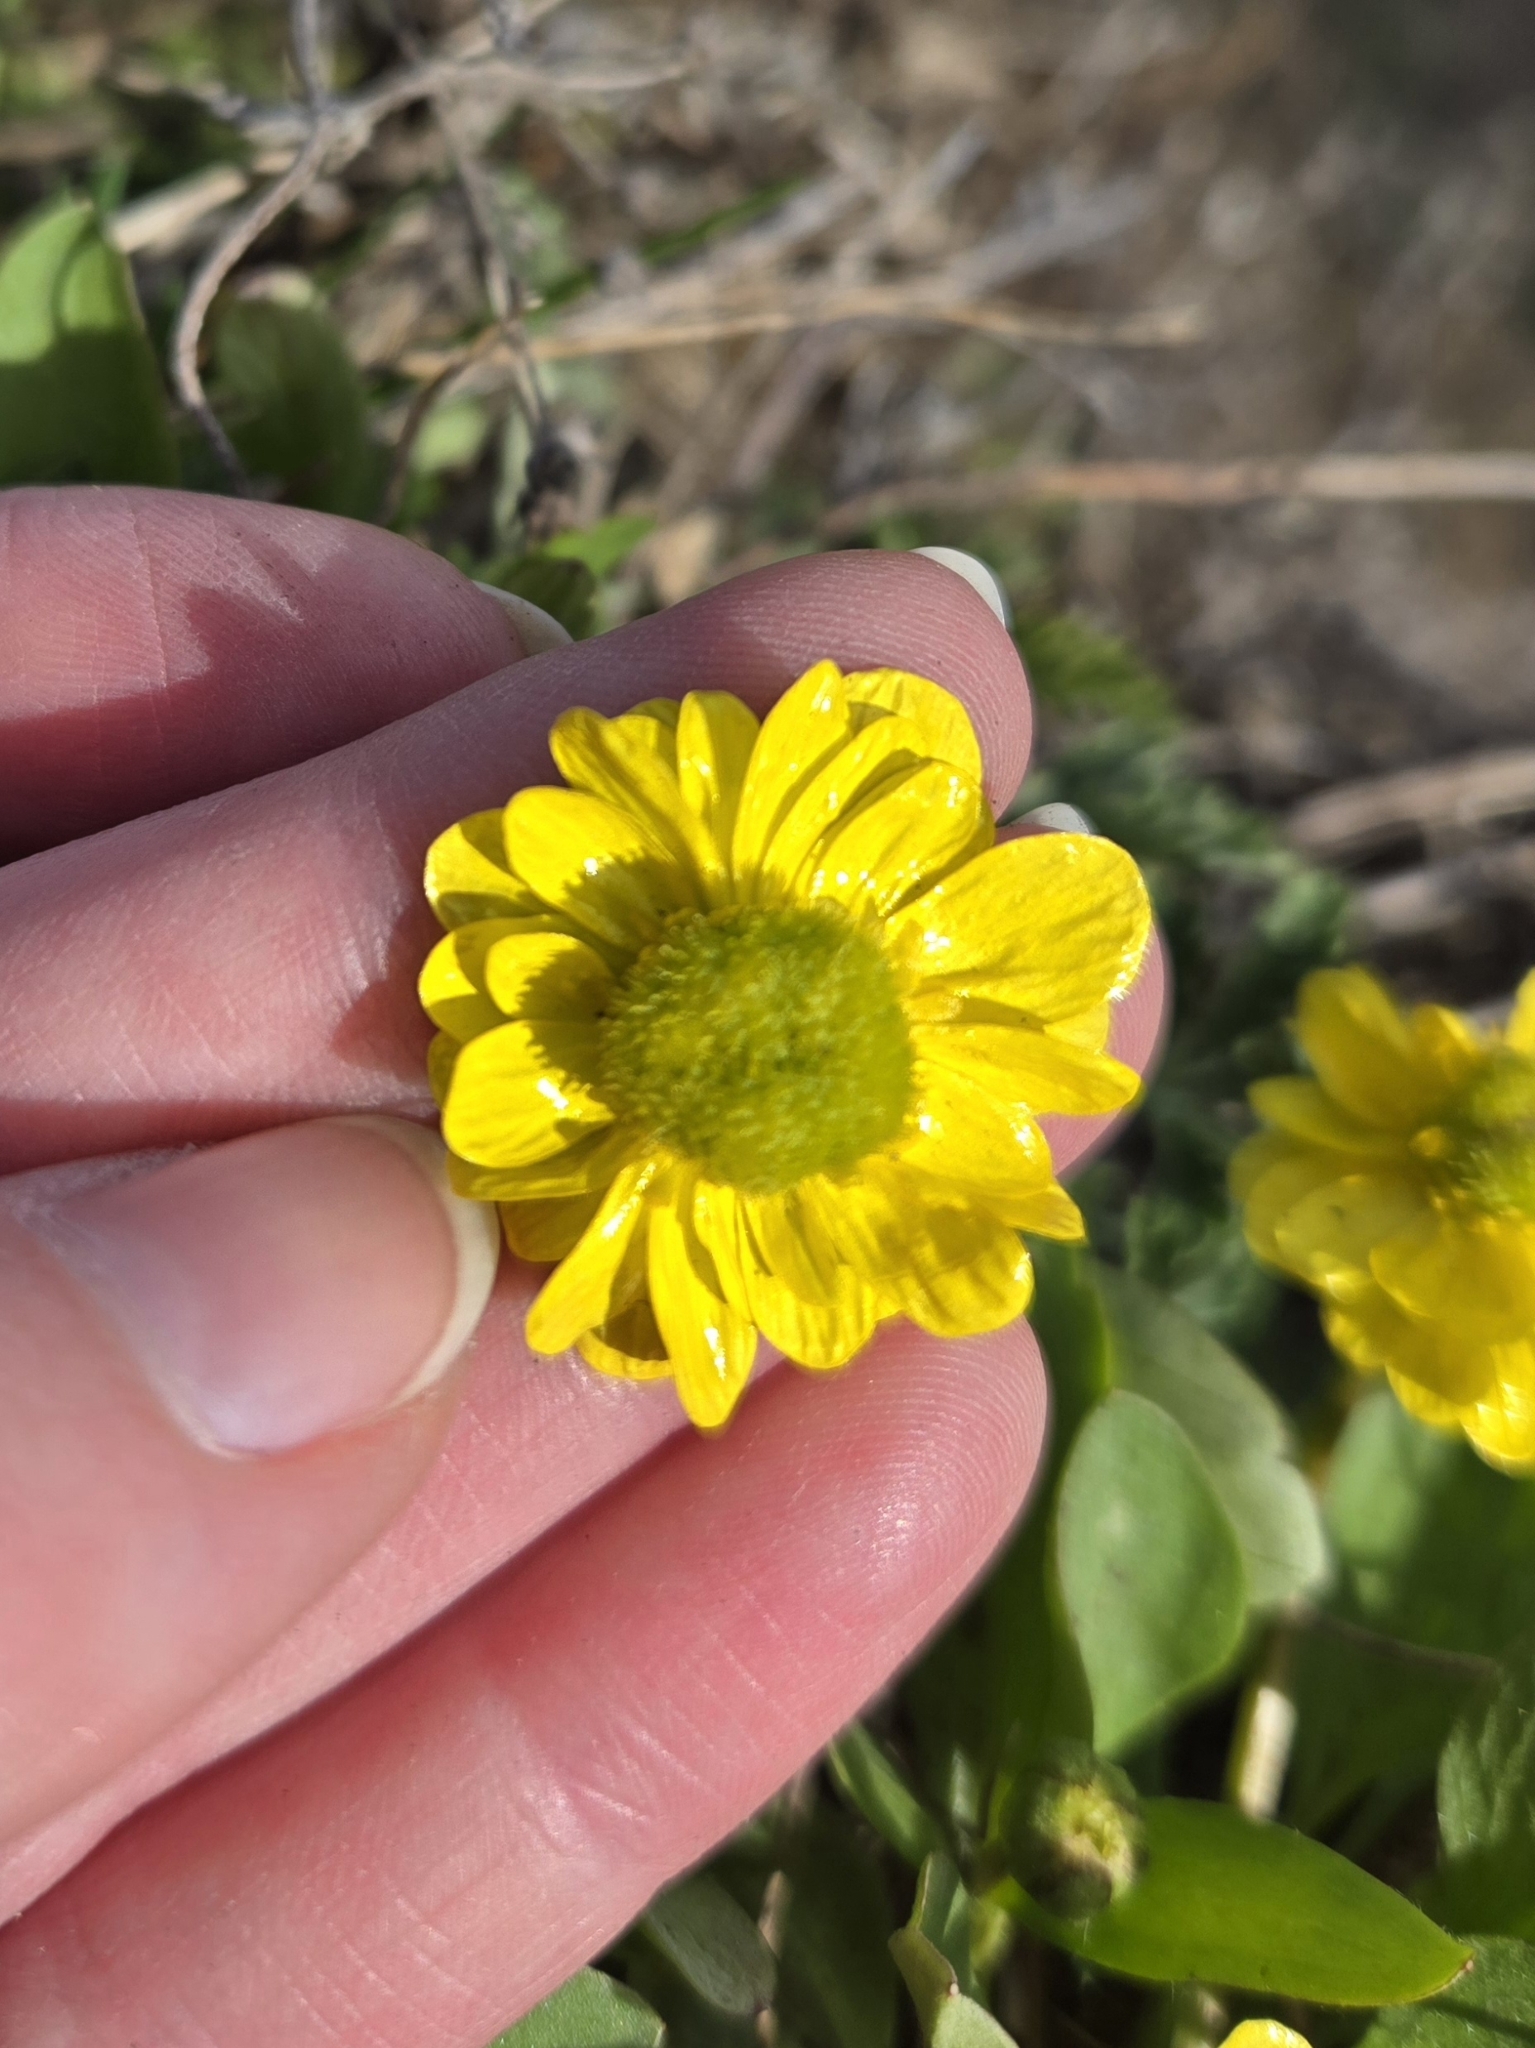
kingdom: Plantae
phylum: Tracheophyta
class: Magnoliopsida
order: Ranunculales
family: Ranunculaceae
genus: Ranunculus
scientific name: Ranunculus glaberrimus
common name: Sagebrush buttercup
